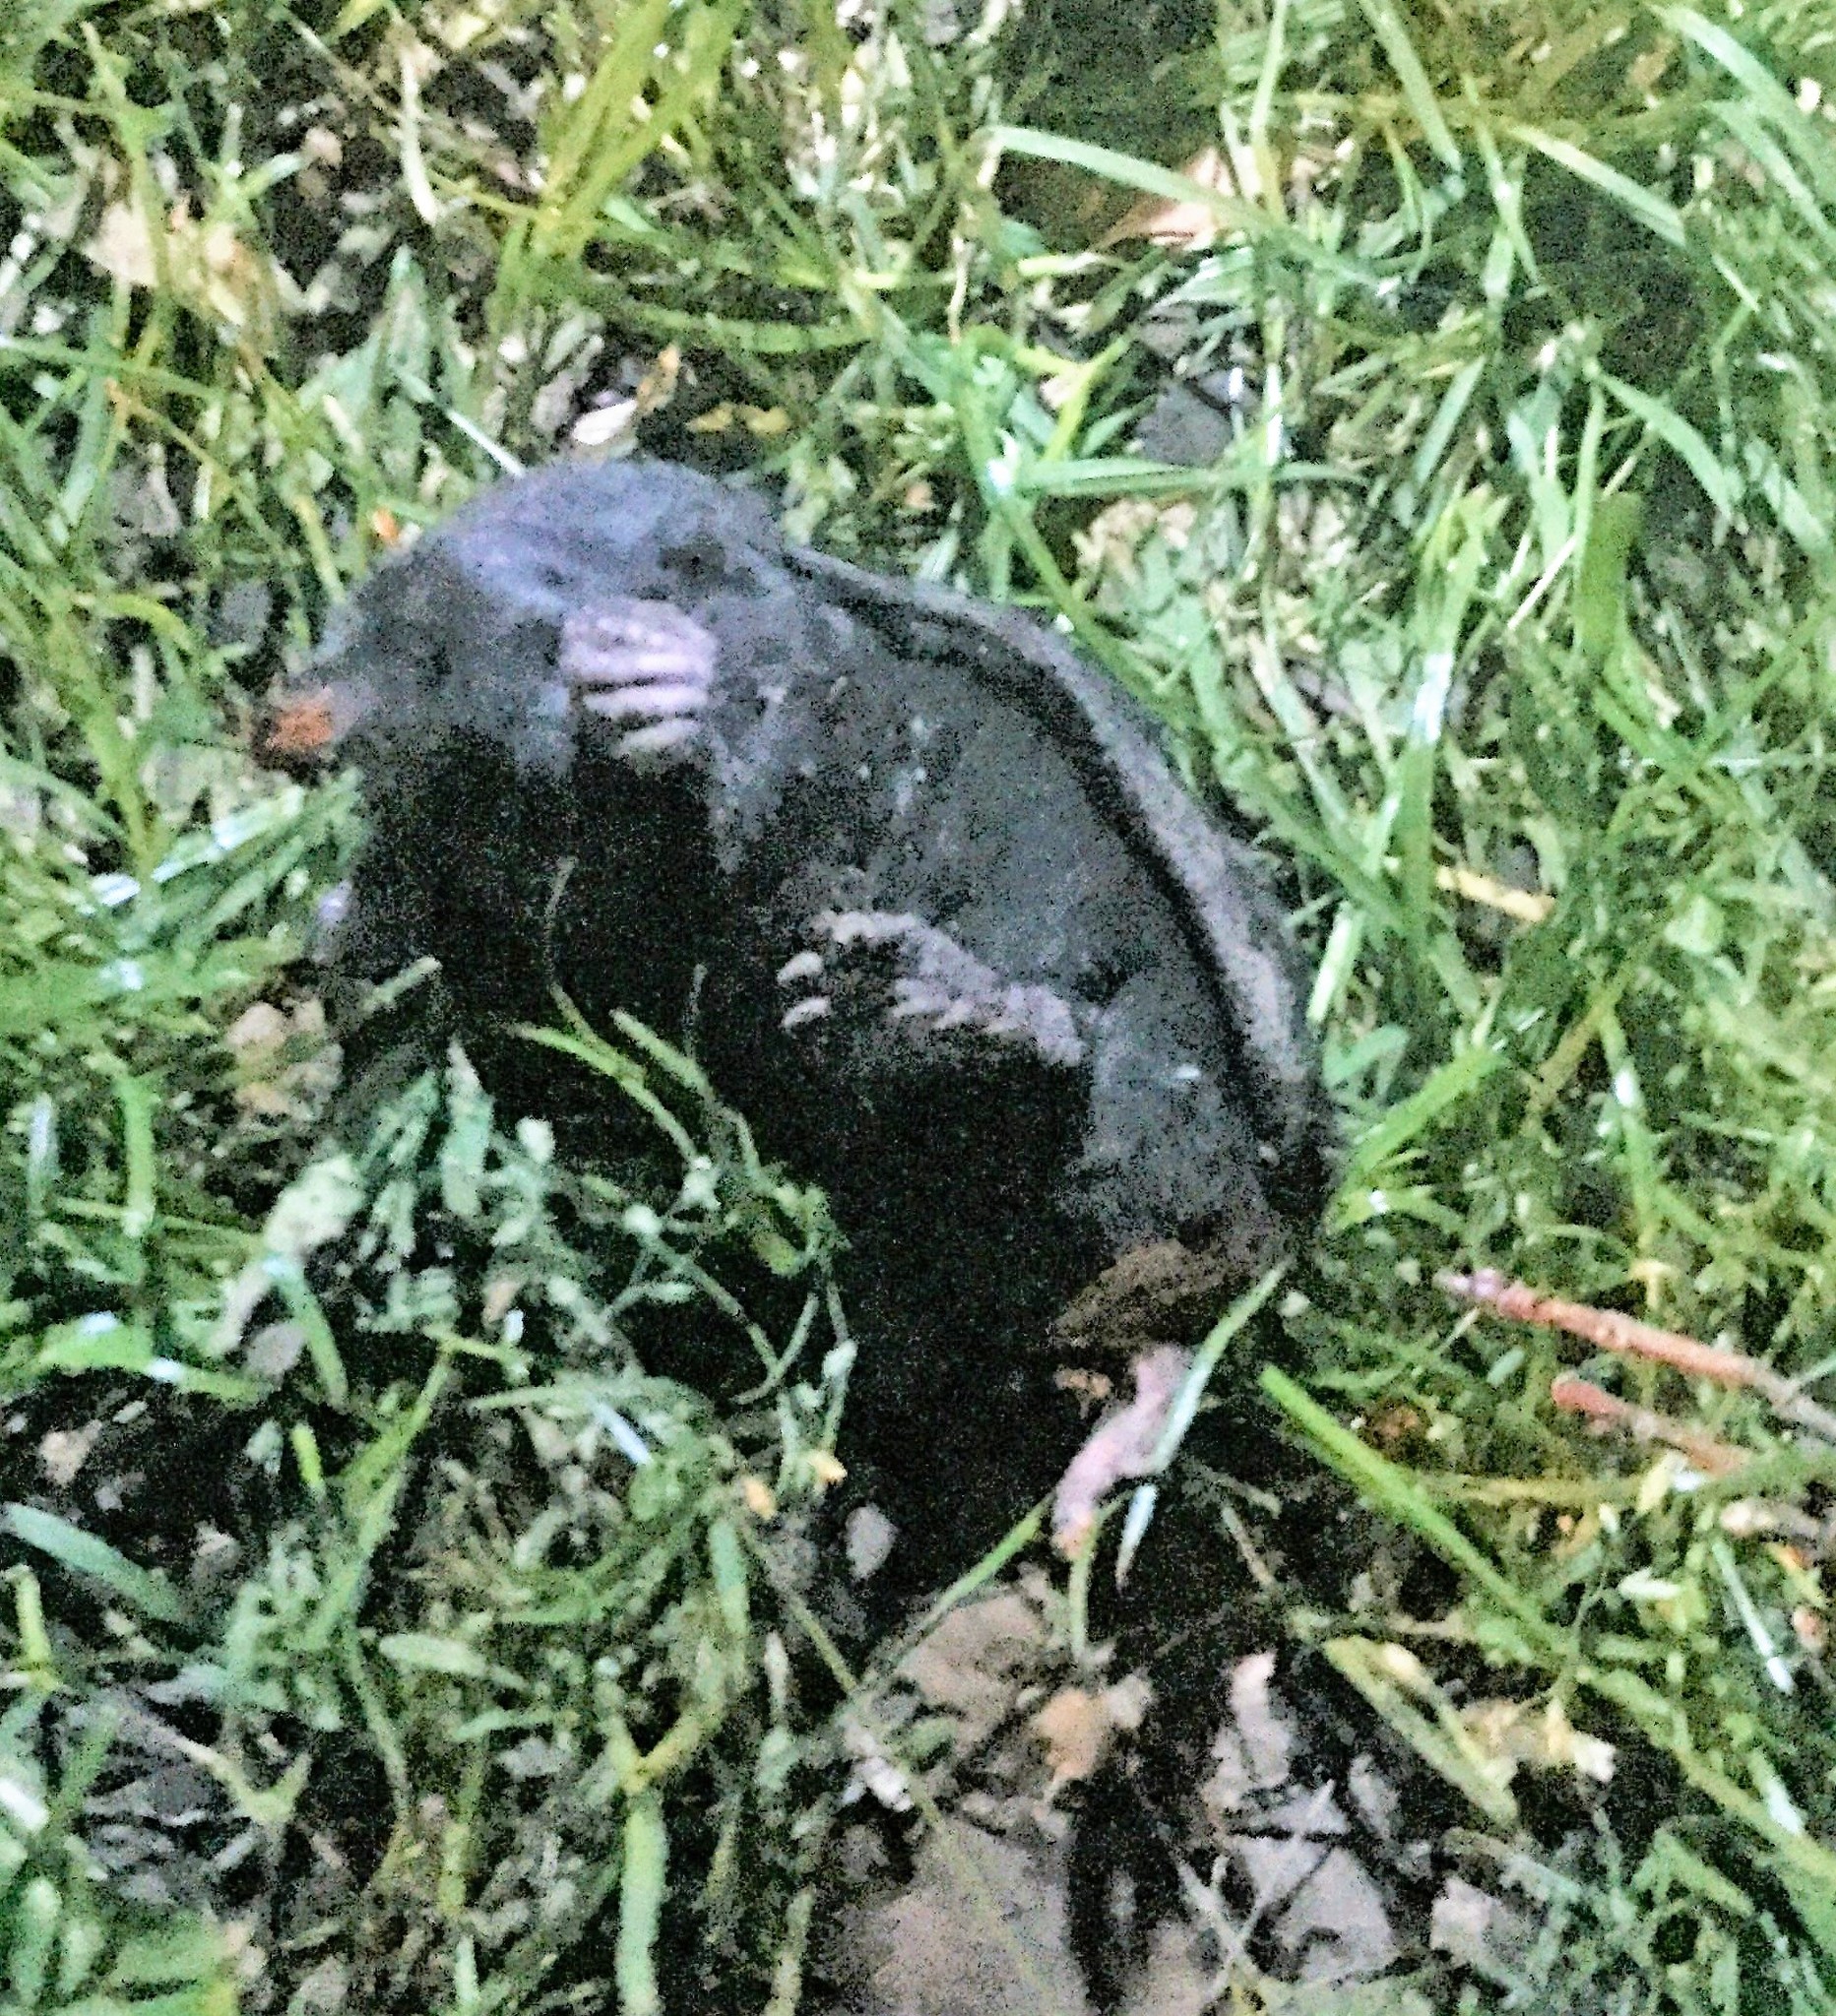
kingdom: Animalia
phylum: Chordata
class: Mammalia
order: Soricomorpha
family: Talpidae
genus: Condylura
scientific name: Condylura cristata
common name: Star-nosed mole
